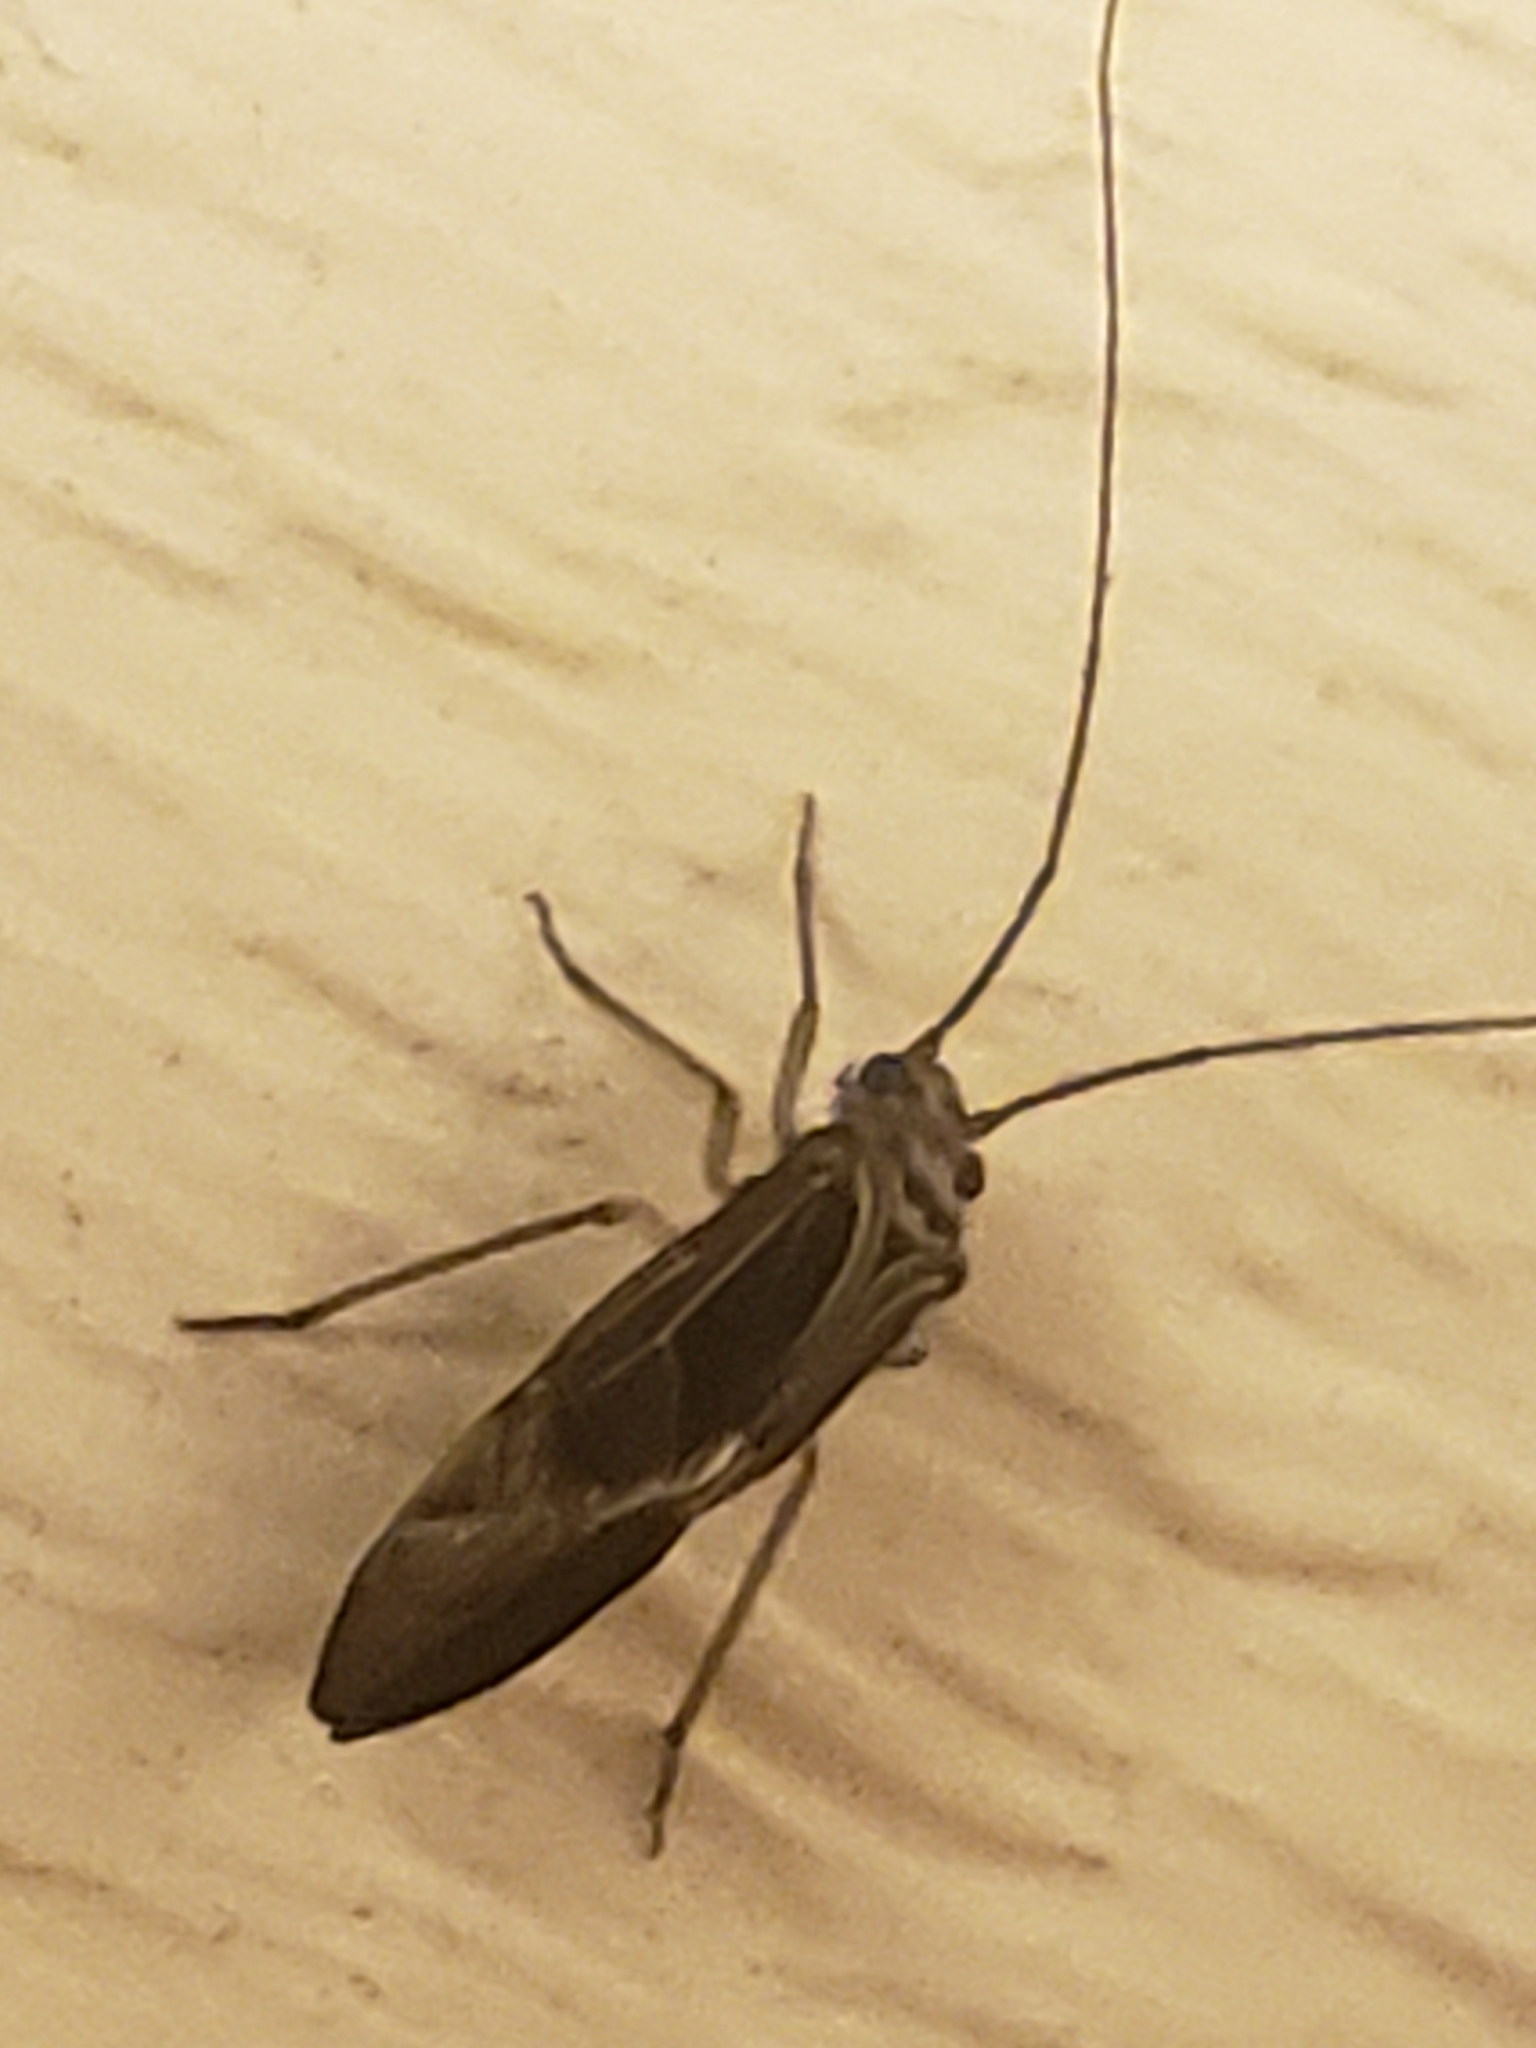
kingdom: Animalia
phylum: Arthropoda
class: Insecta
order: Psocodea
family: Psocidae
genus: Cerastipsocus
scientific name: Cerastipsocus venosus
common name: Tree cattle
